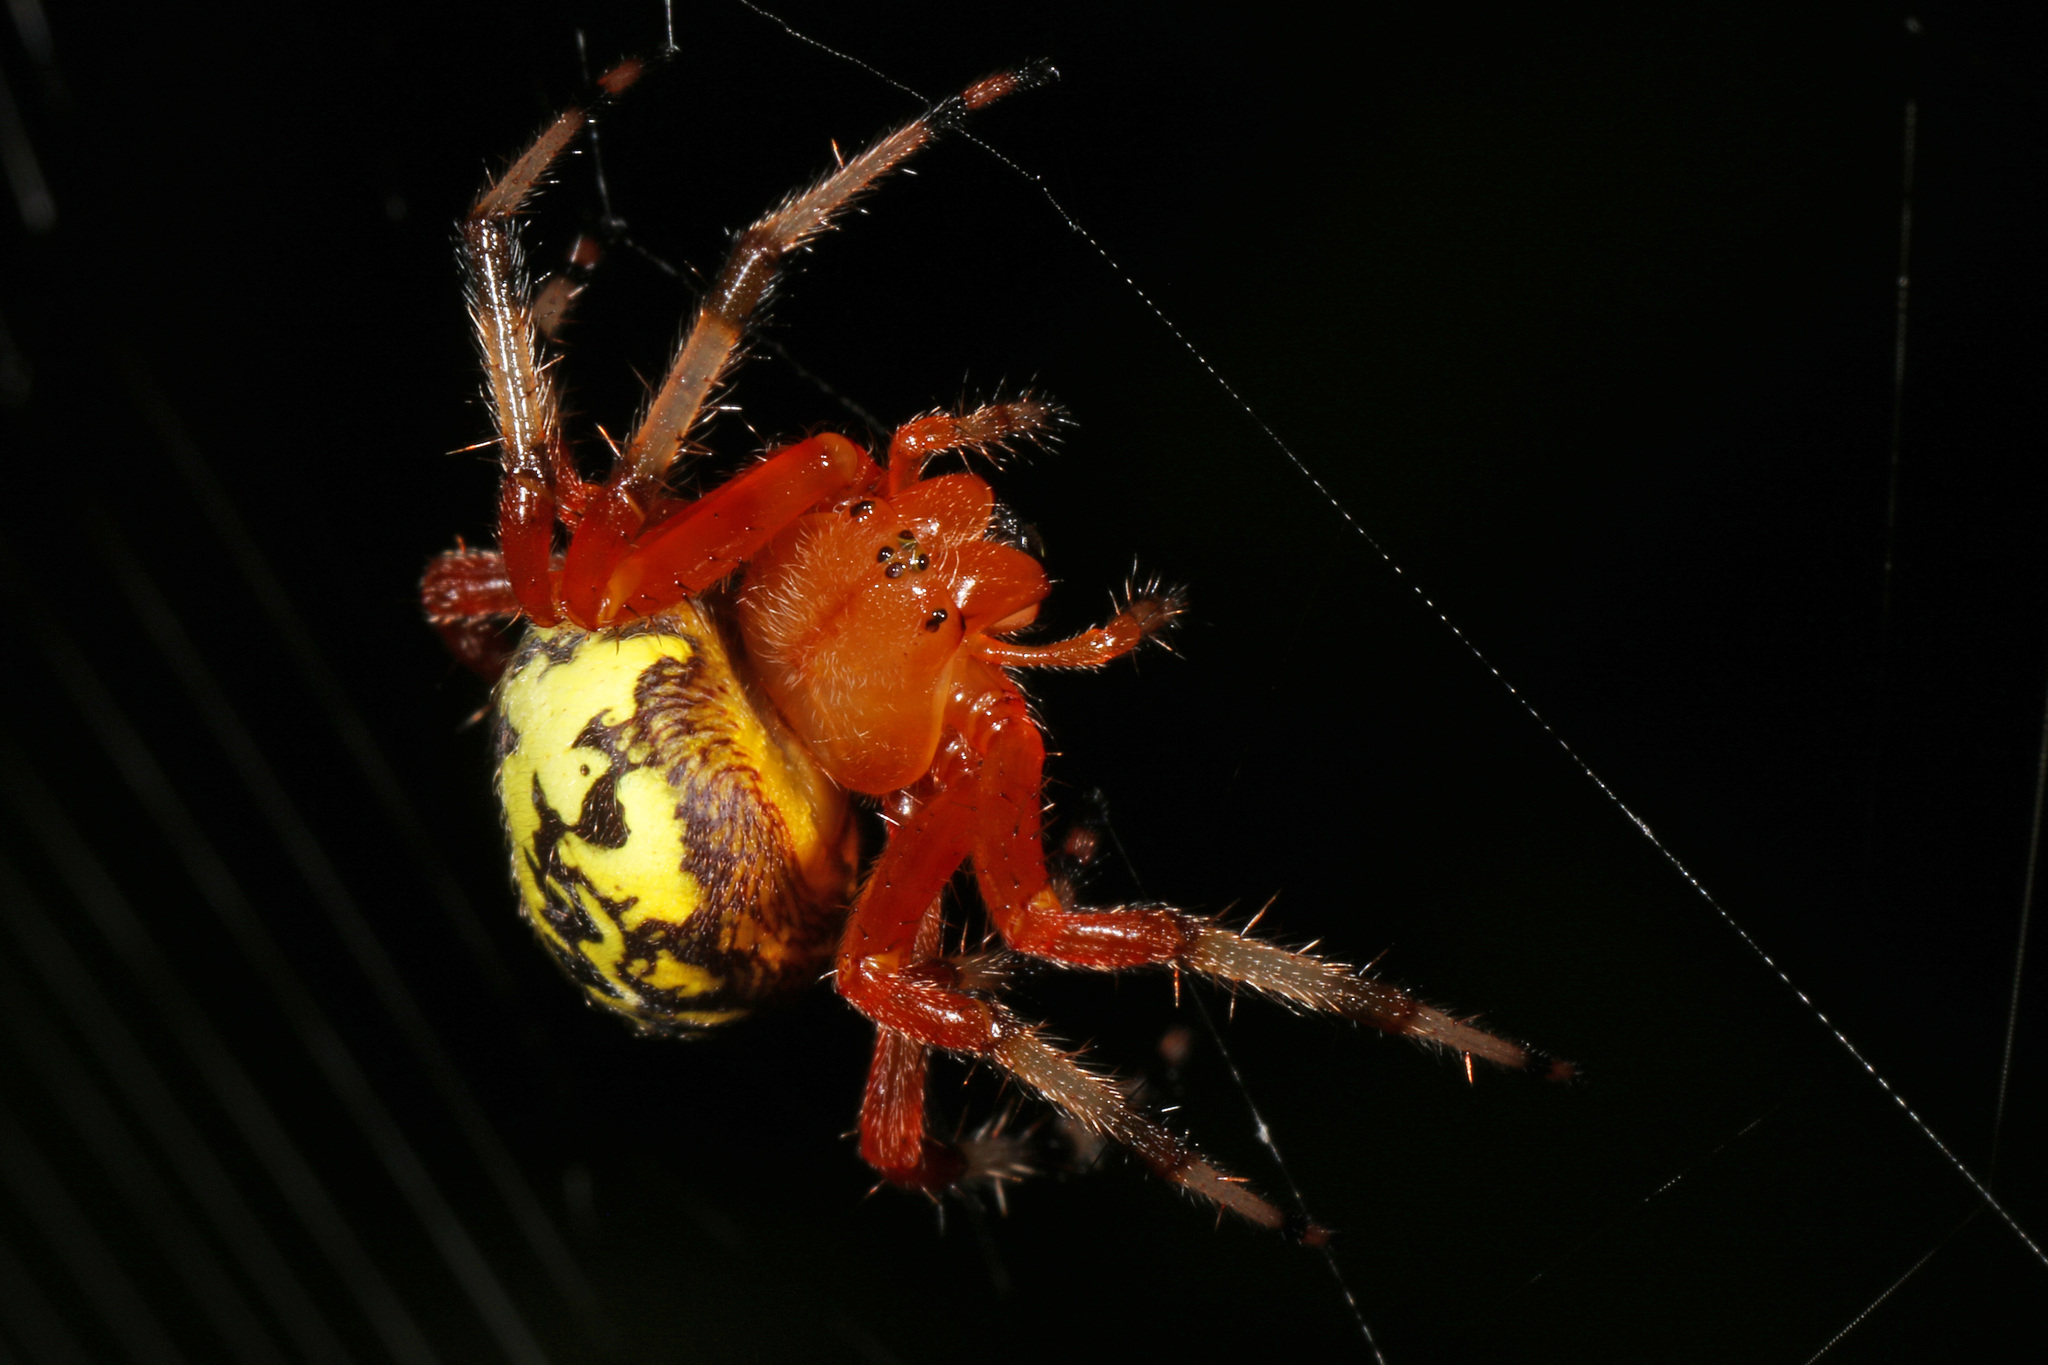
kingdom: Animalia
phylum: Arthropoda
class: Arachnida
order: Araneae
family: Araneidae
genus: Araneus
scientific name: Araneus marmoreus
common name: Marbled orbweaver
